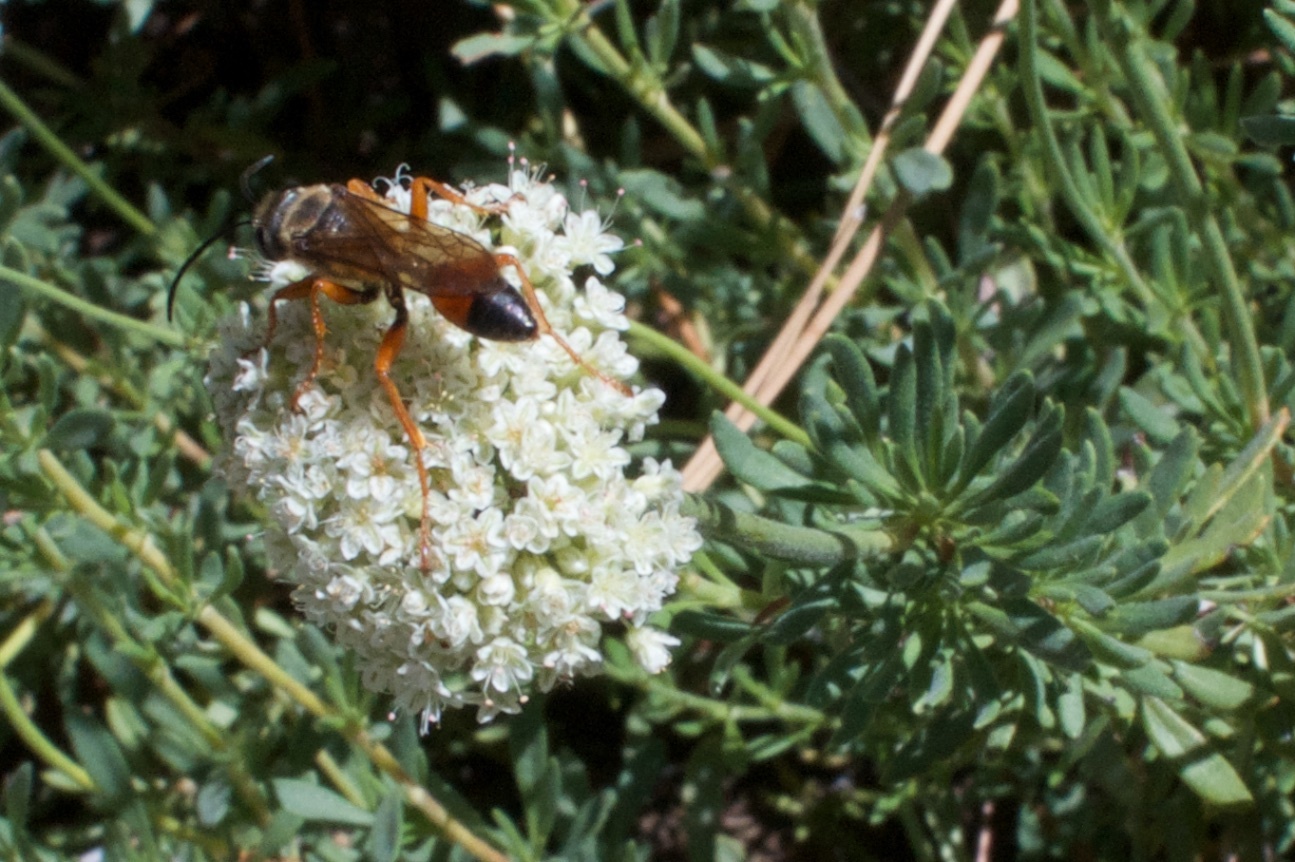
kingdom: Animalia
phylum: Arthropoda
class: Insecta
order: Hymenoptera
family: Sphecidae
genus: Sphex
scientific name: Sphex ichneumoneus
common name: Great golden digger wasp
